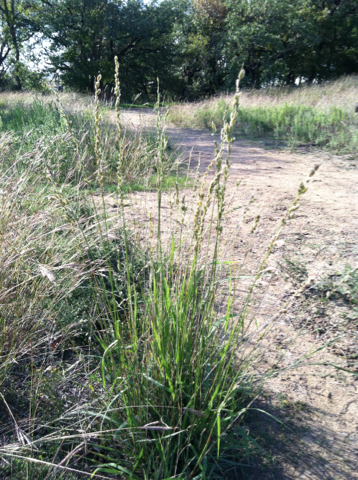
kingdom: Plantae
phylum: Tracheophyta
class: Liliopsida
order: Poales
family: Poaceae
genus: Eragrostis
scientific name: Eragrostis superba
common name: Wilman lovegrass
